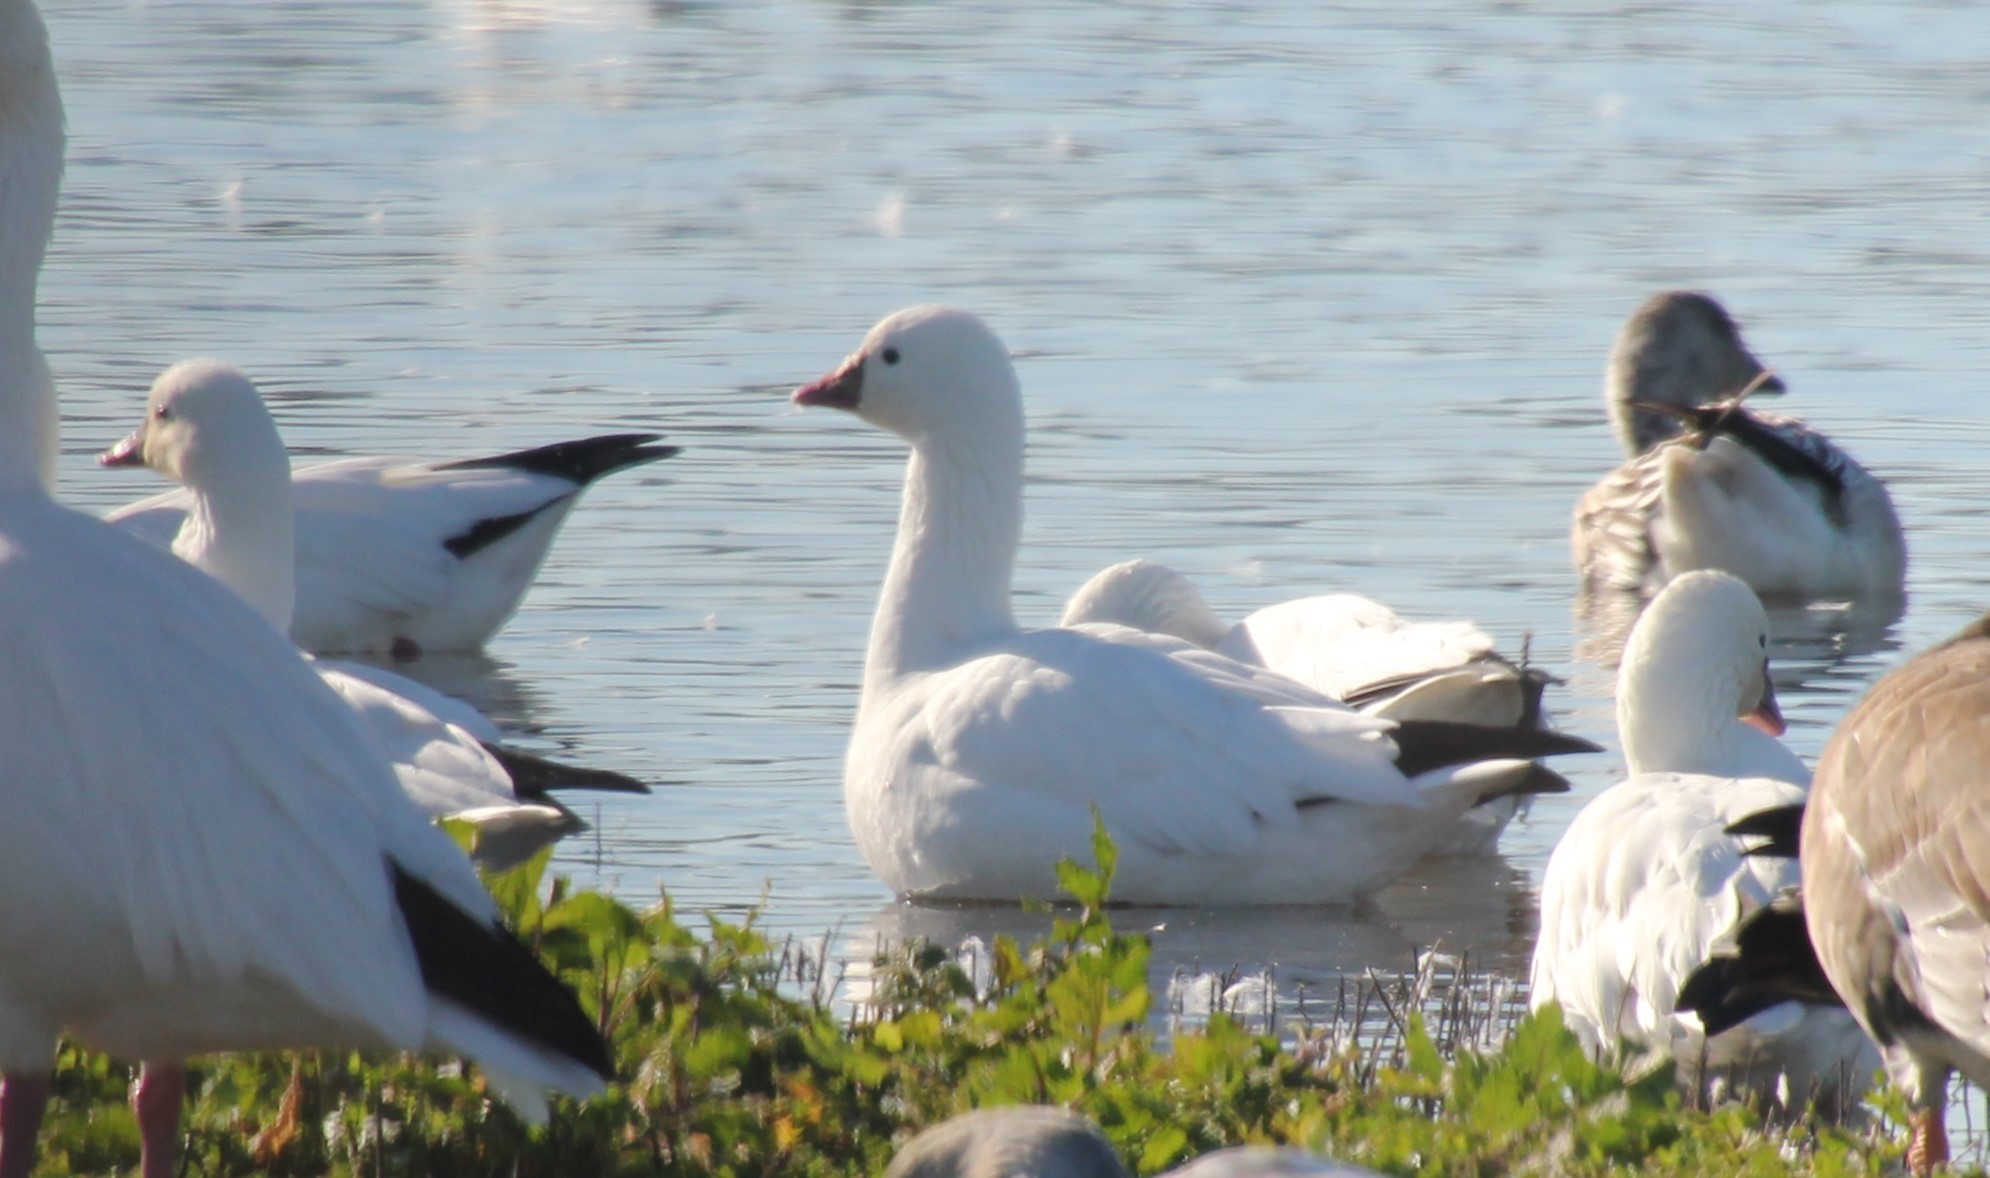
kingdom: Animalia
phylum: Chordata
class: Aves
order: Anseriformes
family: Anatidae
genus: Anser
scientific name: Anser rossii
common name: Ross's goose
